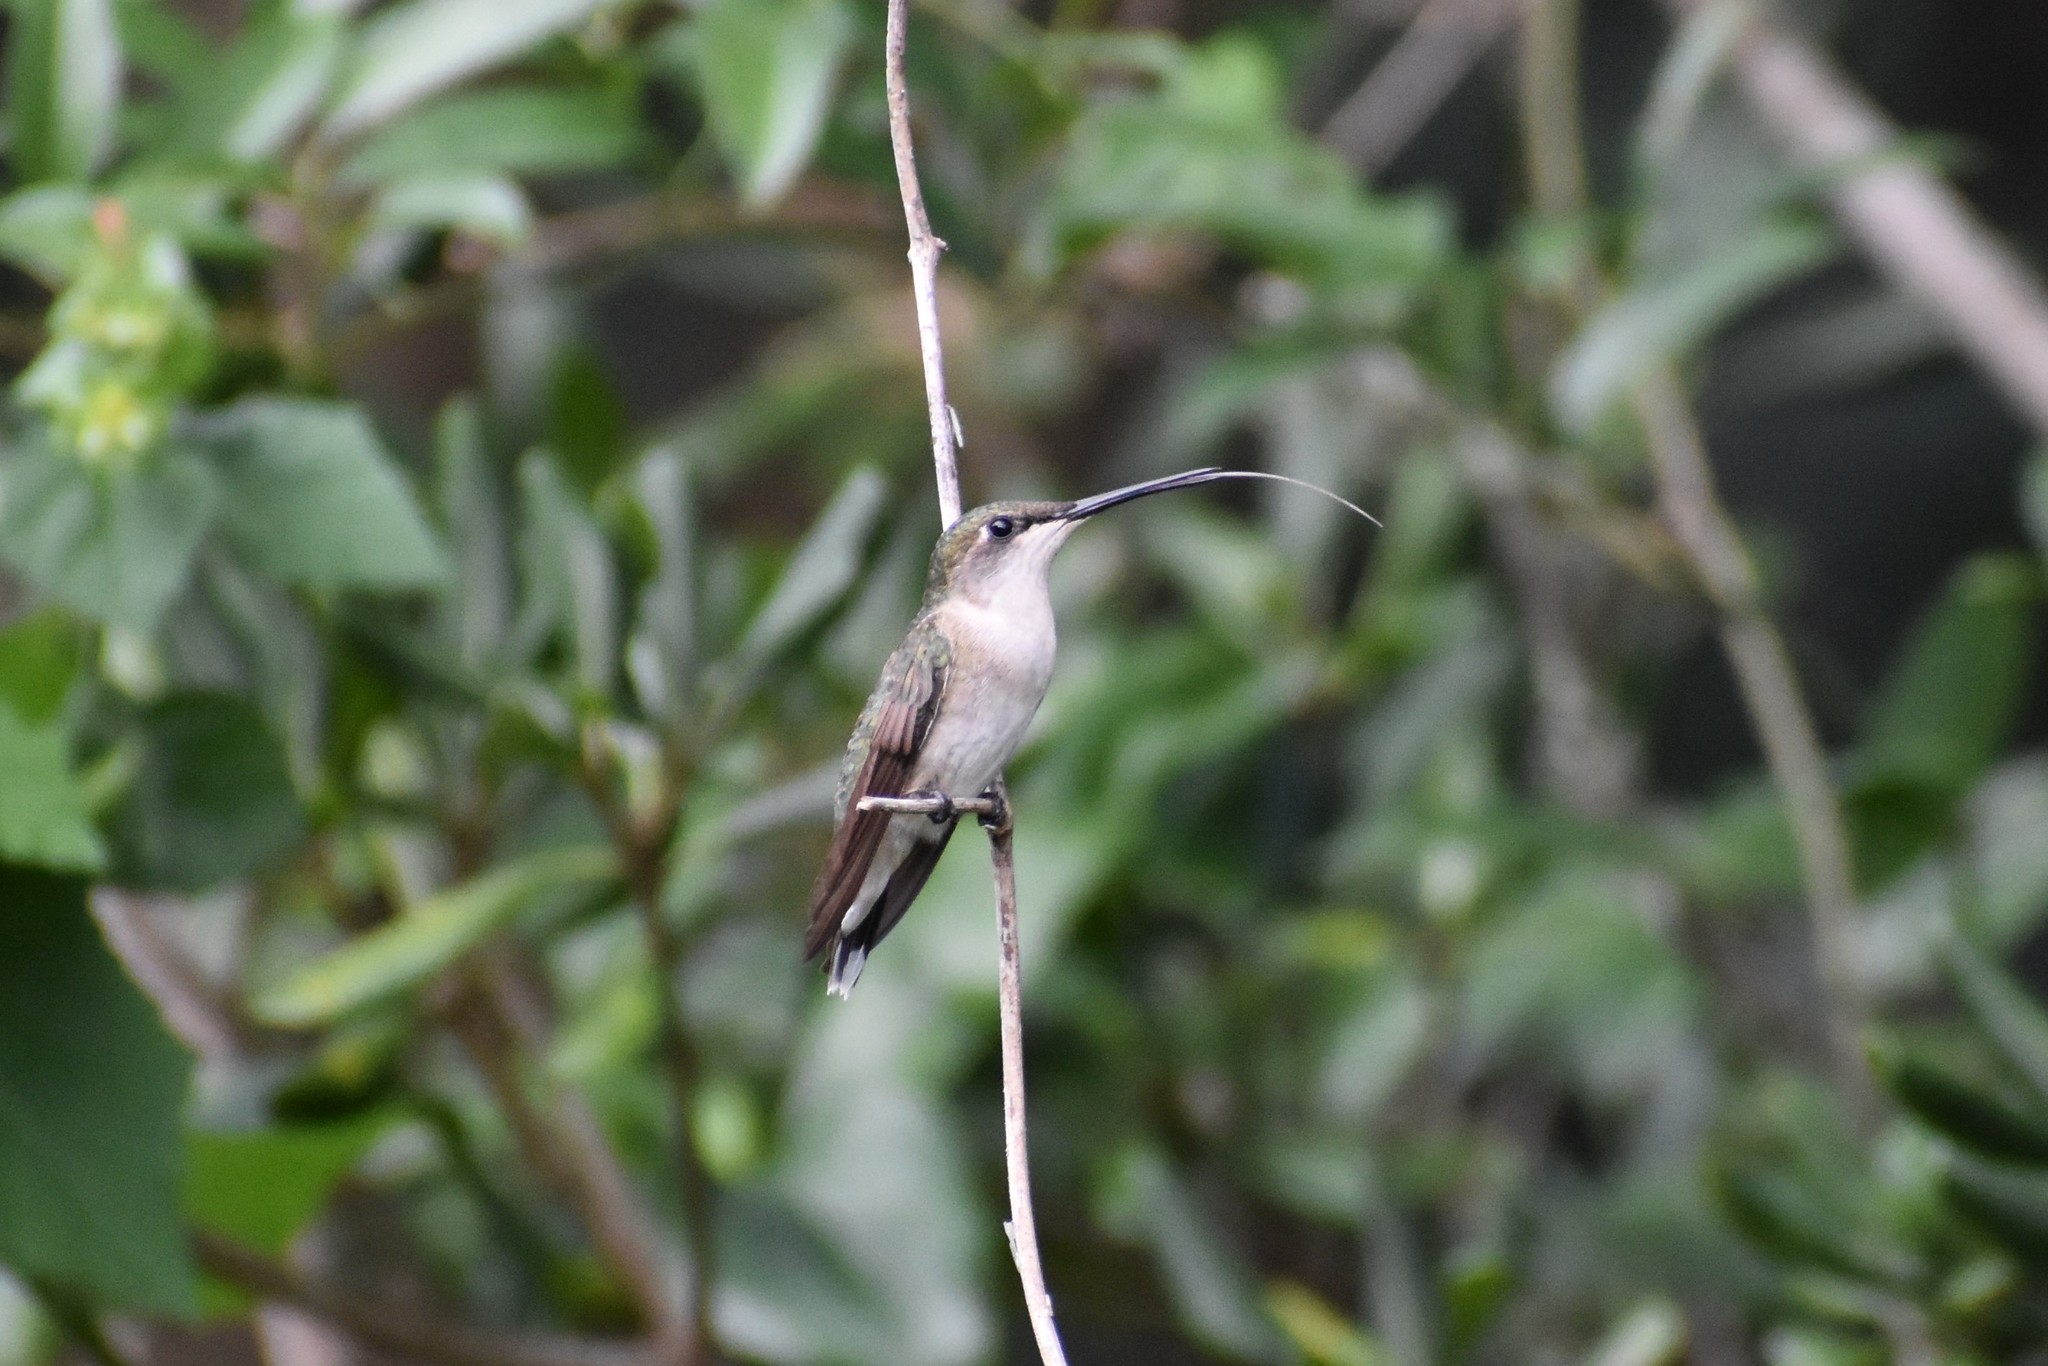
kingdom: Animalia
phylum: Chordata
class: Aves
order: Apodiformes
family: Trochilidae
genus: Archilochus
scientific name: Archilochus colubris
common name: Ruby-throated hummingbird
